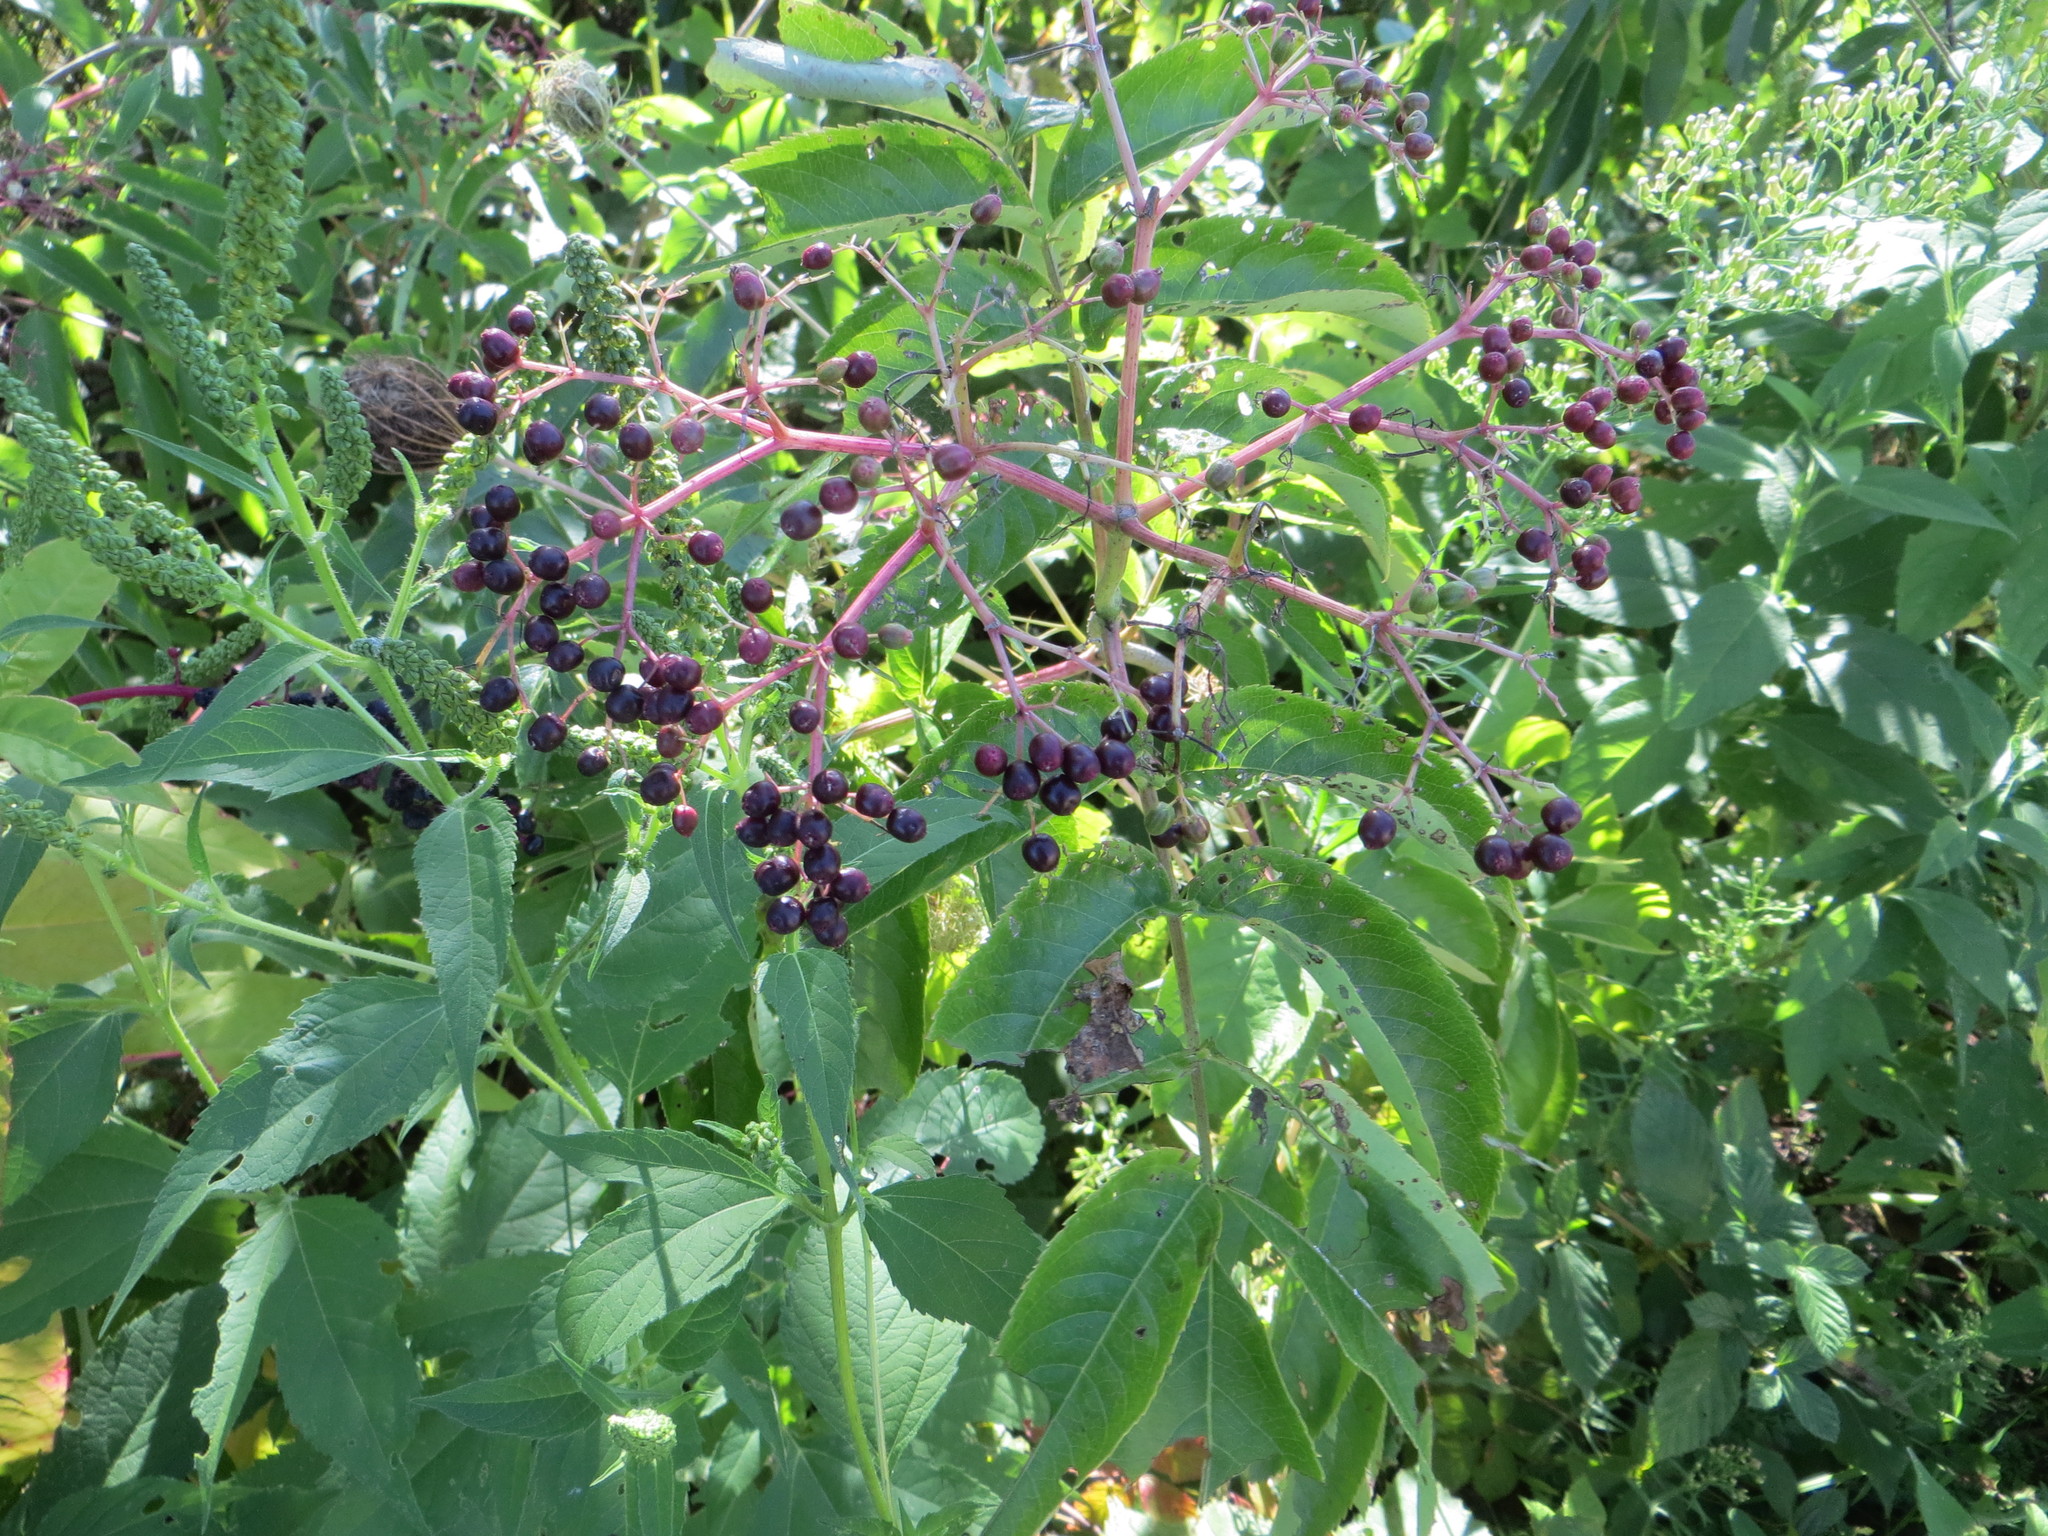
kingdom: Plantae
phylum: Tracheophyta
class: Magnoliopsida
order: Dipsacales
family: Viburnaceae
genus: Sambucus
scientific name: Sambucus canadensis
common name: American elder
